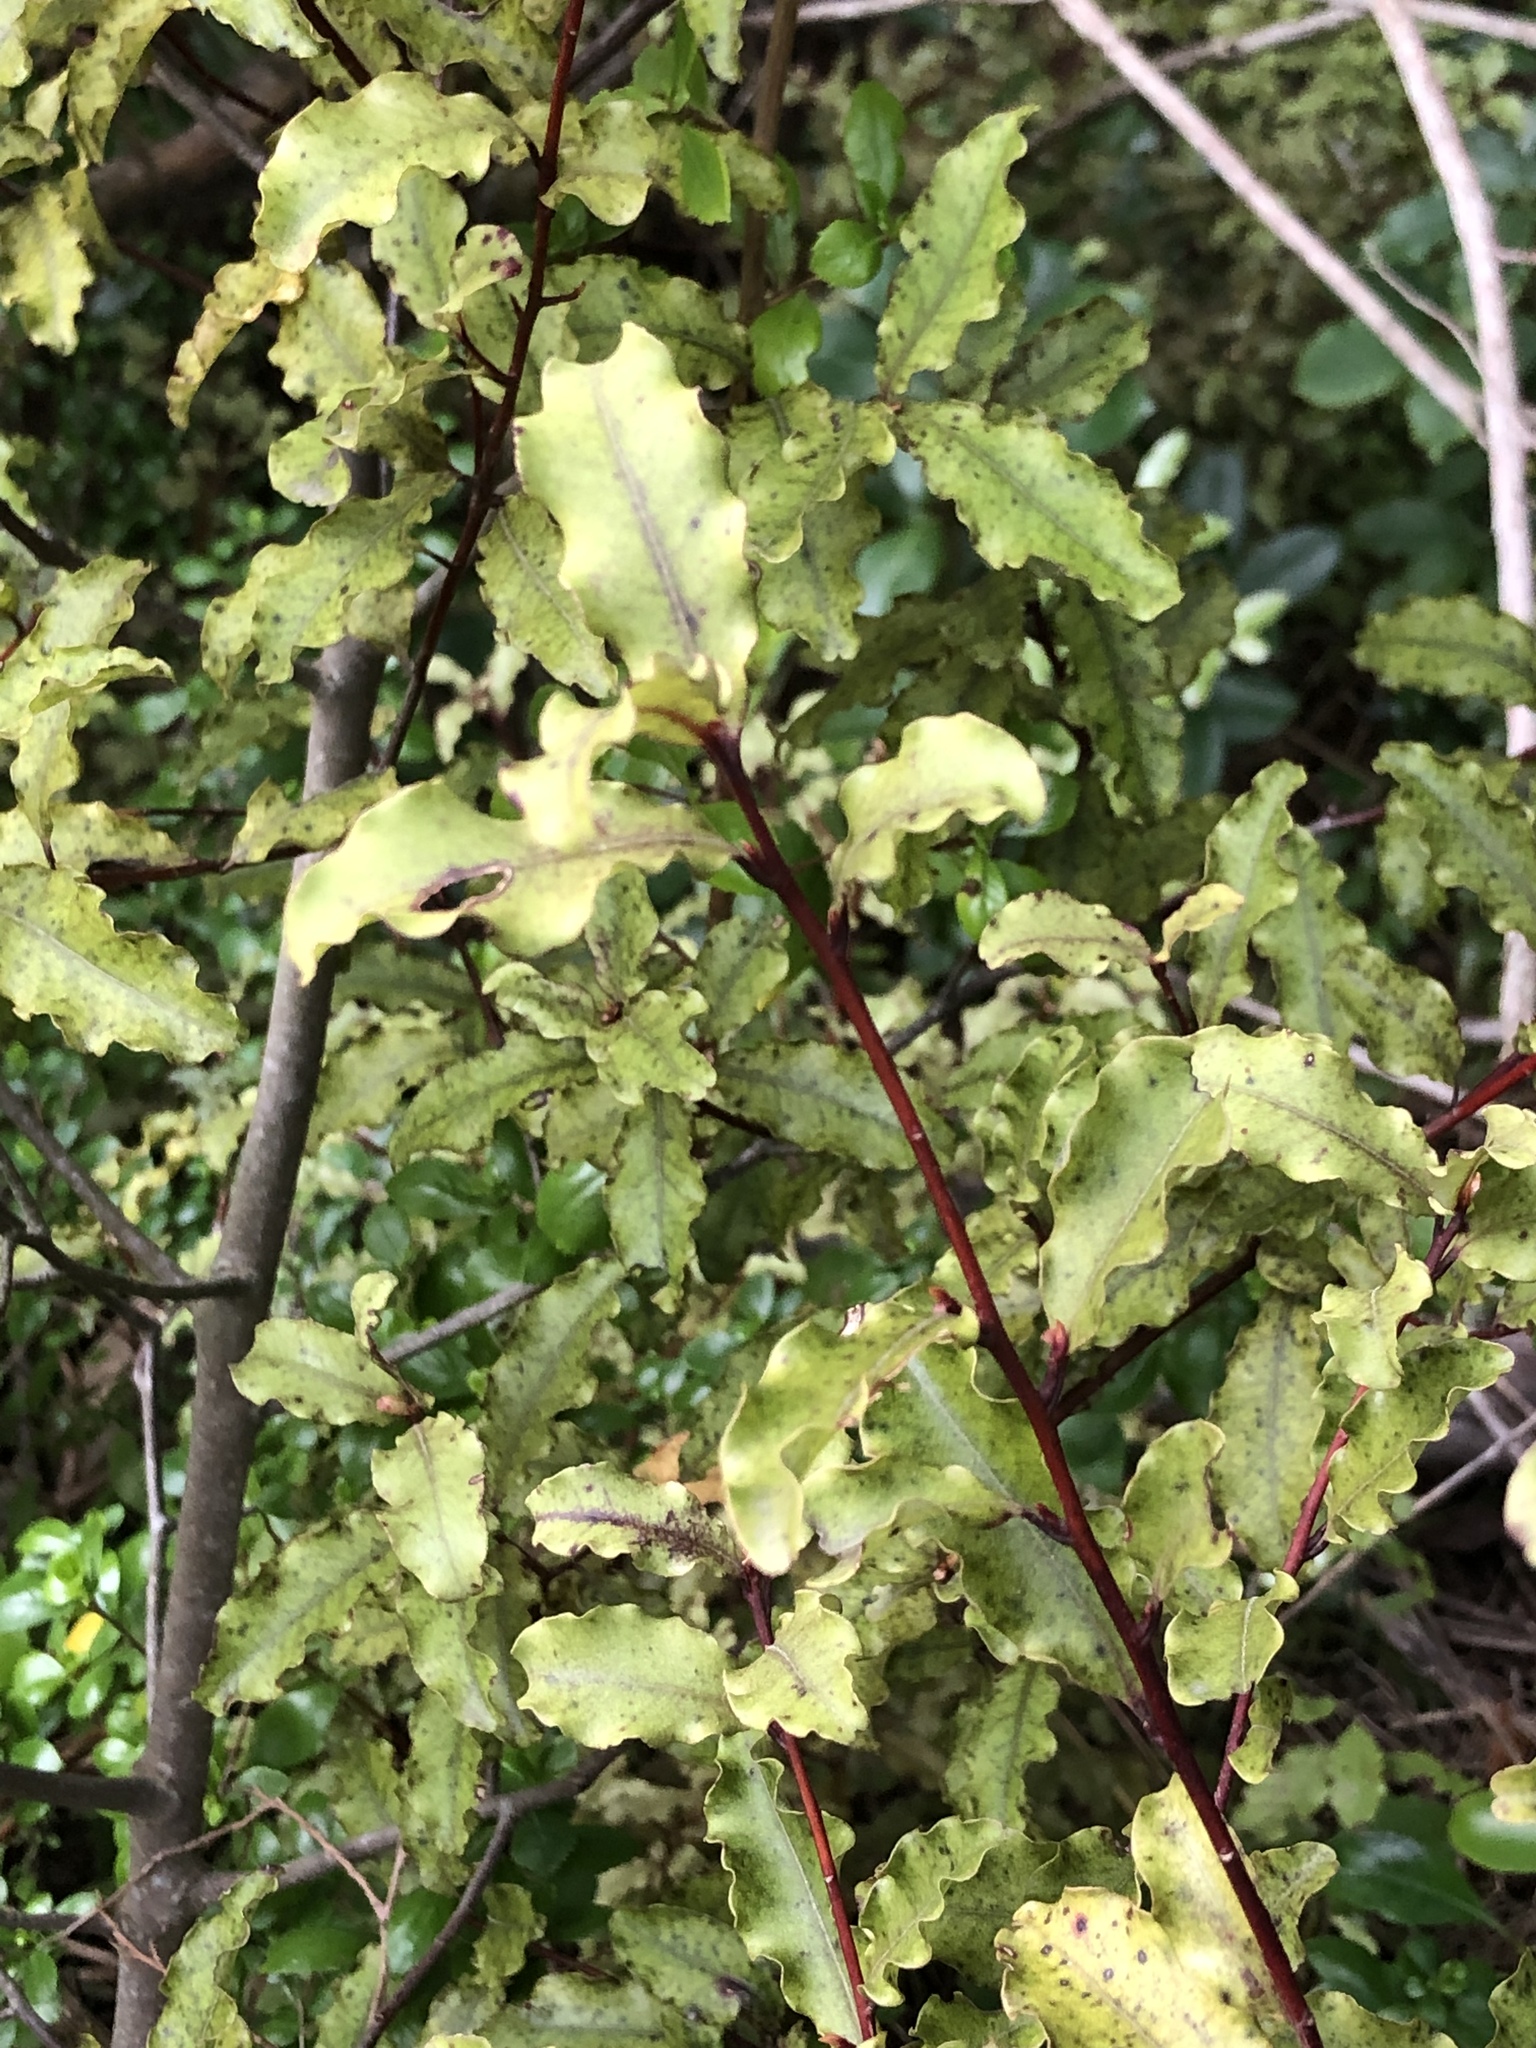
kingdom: Plantae
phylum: Tracheophyta
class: Magnoliopsida
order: Ericales
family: Primulaceae
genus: Myrsine
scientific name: Myrsine australis
